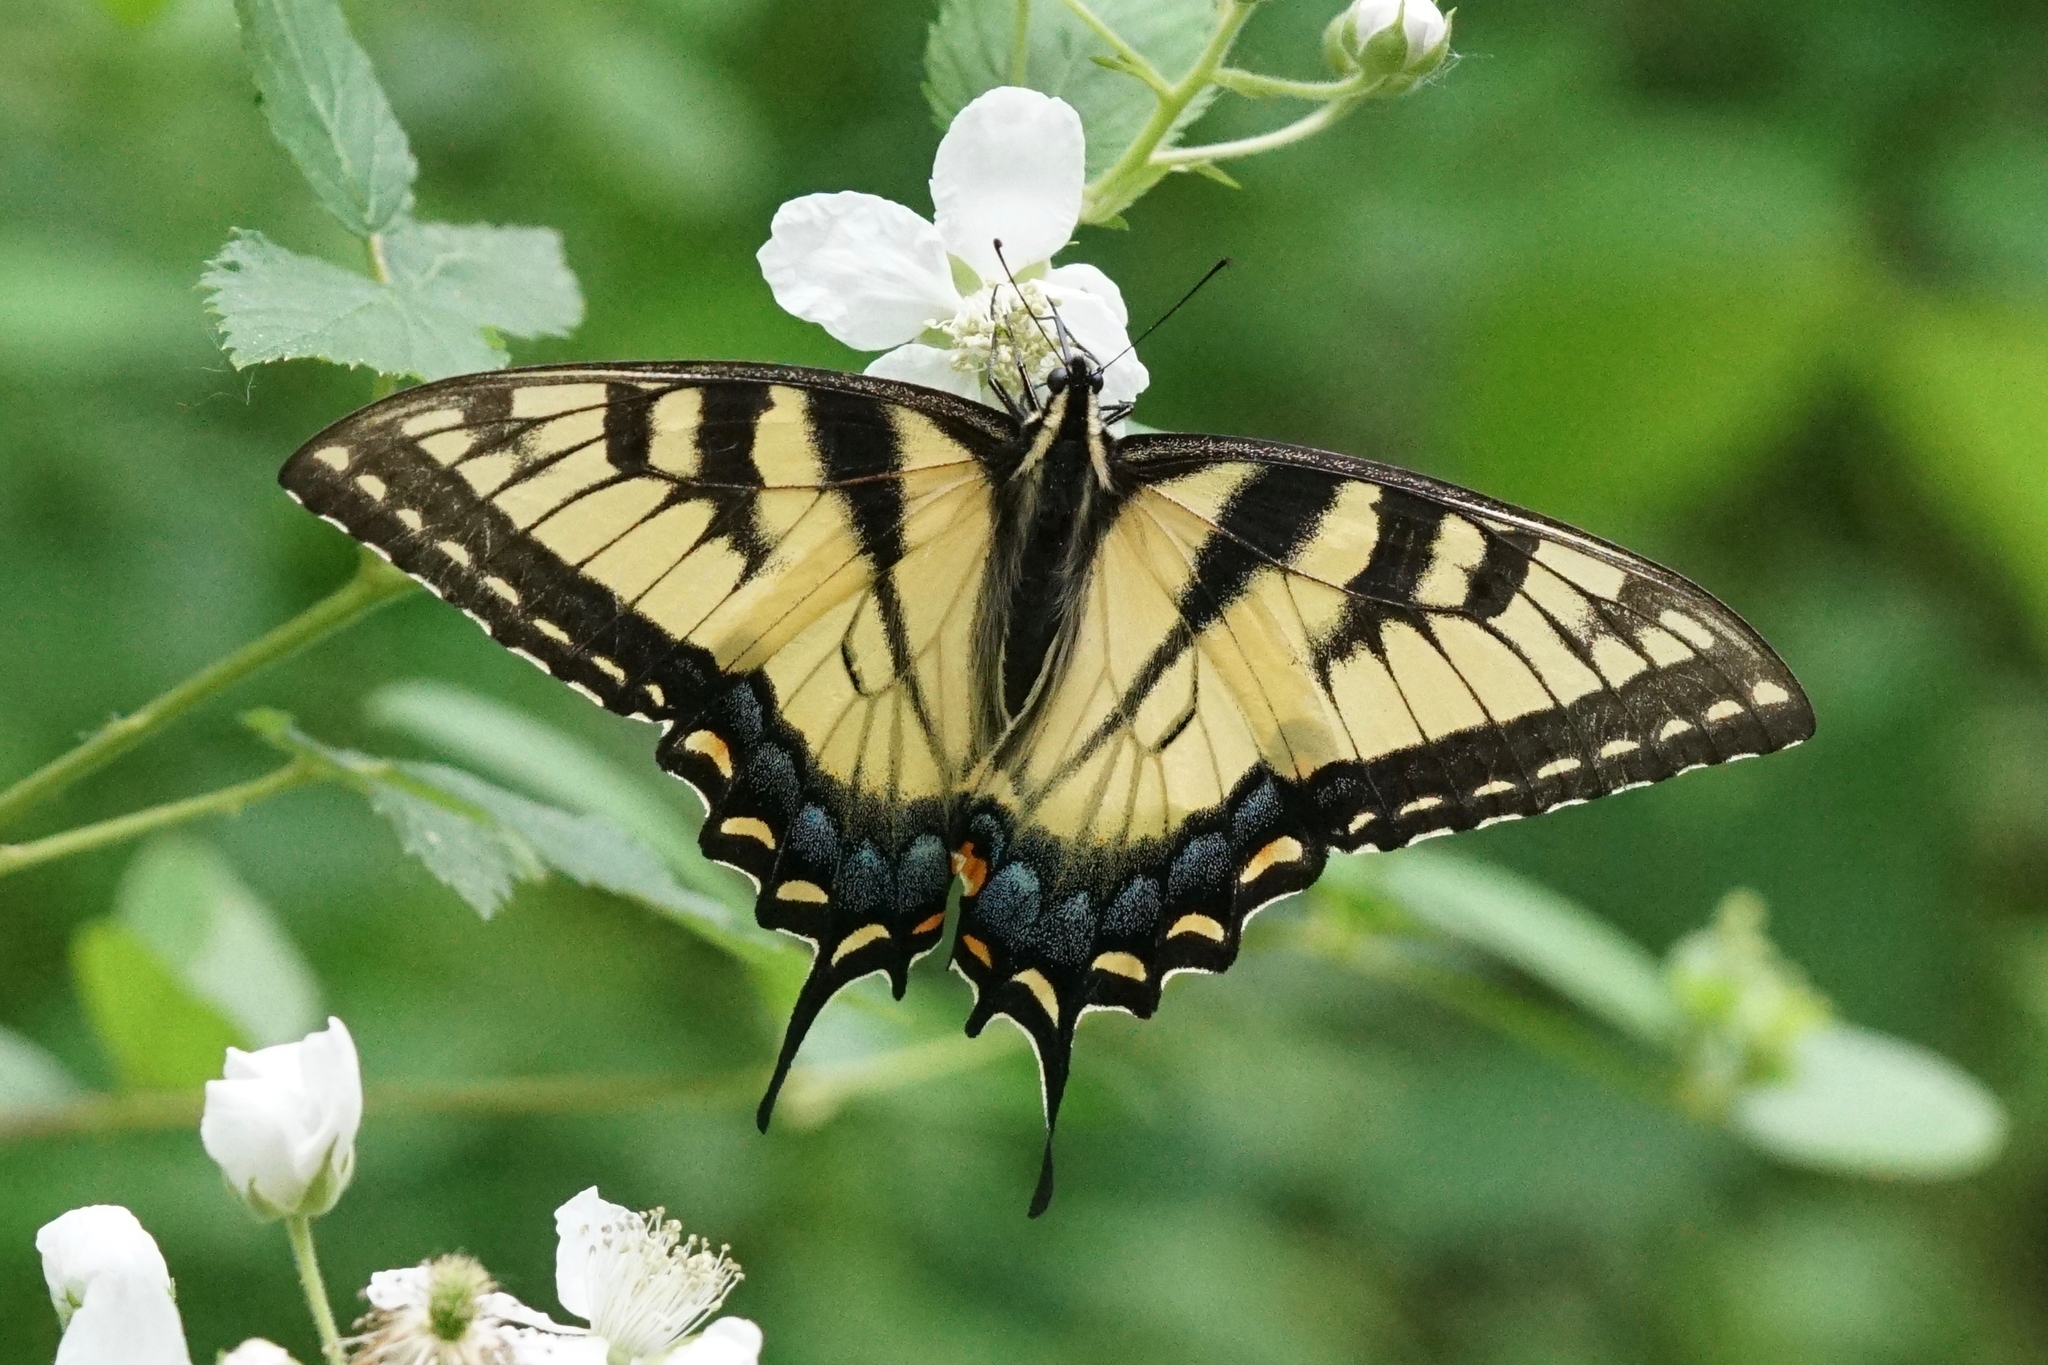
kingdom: Animalia
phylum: Arthropoda
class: Insecta
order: Lepidoptera
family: Papilionidae
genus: Papilio
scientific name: Papilio glaucus
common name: Tiger swallowtail
